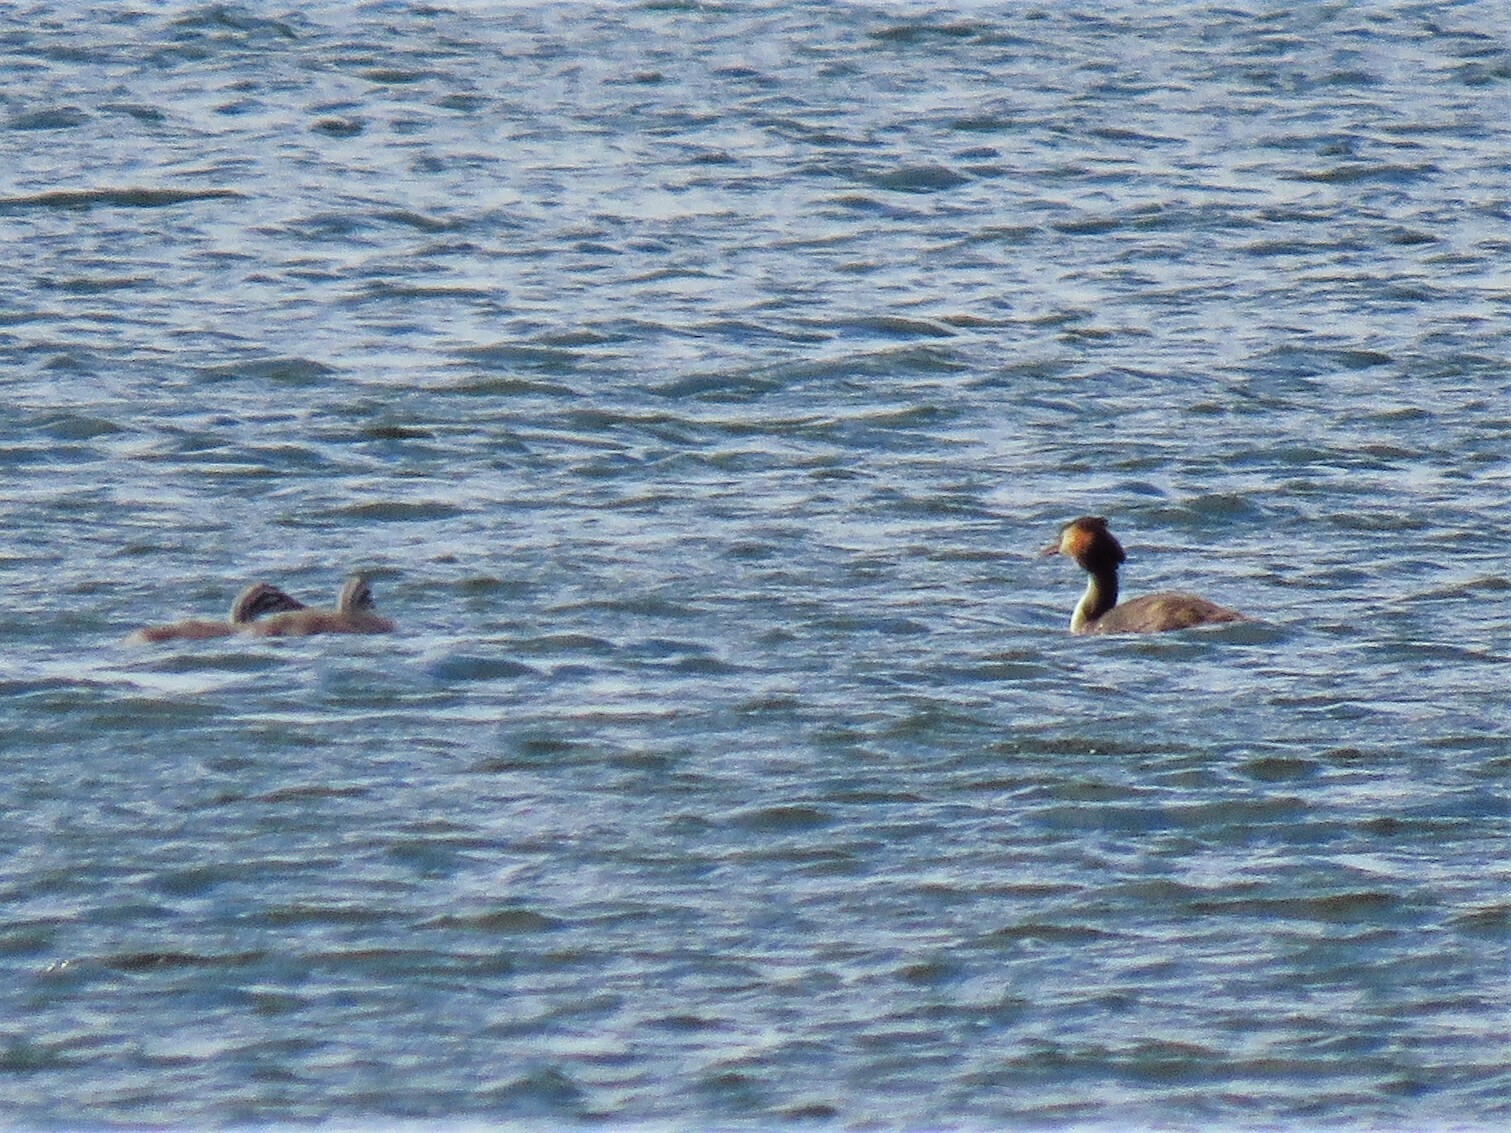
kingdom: Animalia
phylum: Chordata
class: Aves
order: Podicipediformes
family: Podicipedidae
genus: Podiceps
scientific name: Podiceps cristatus
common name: Great crested grebe
